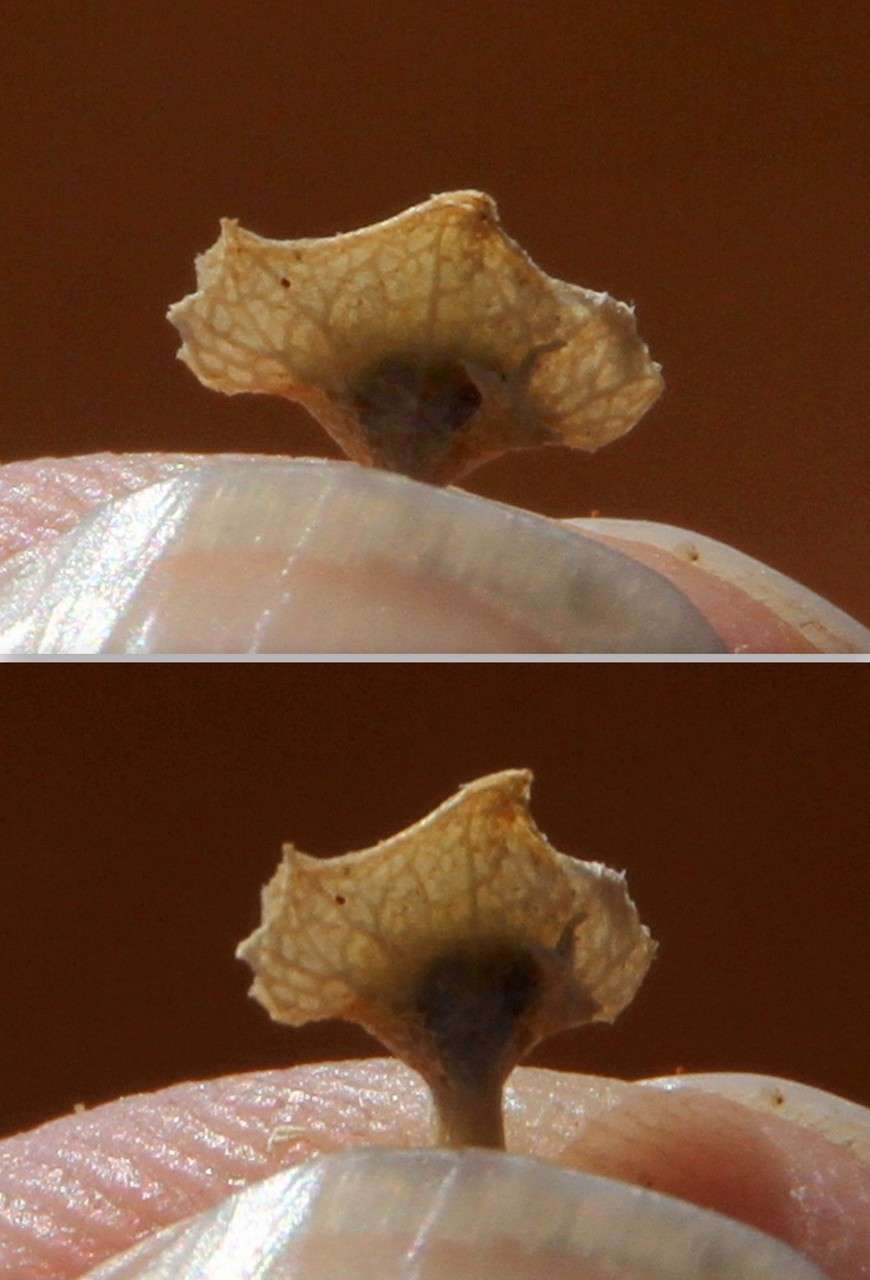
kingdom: Plantae
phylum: Tracheophyta
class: Magnoliopsida
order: Caryophyllales
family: Amaranthaceae
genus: Atriplex
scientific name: Atriplex pseudocampanulata
